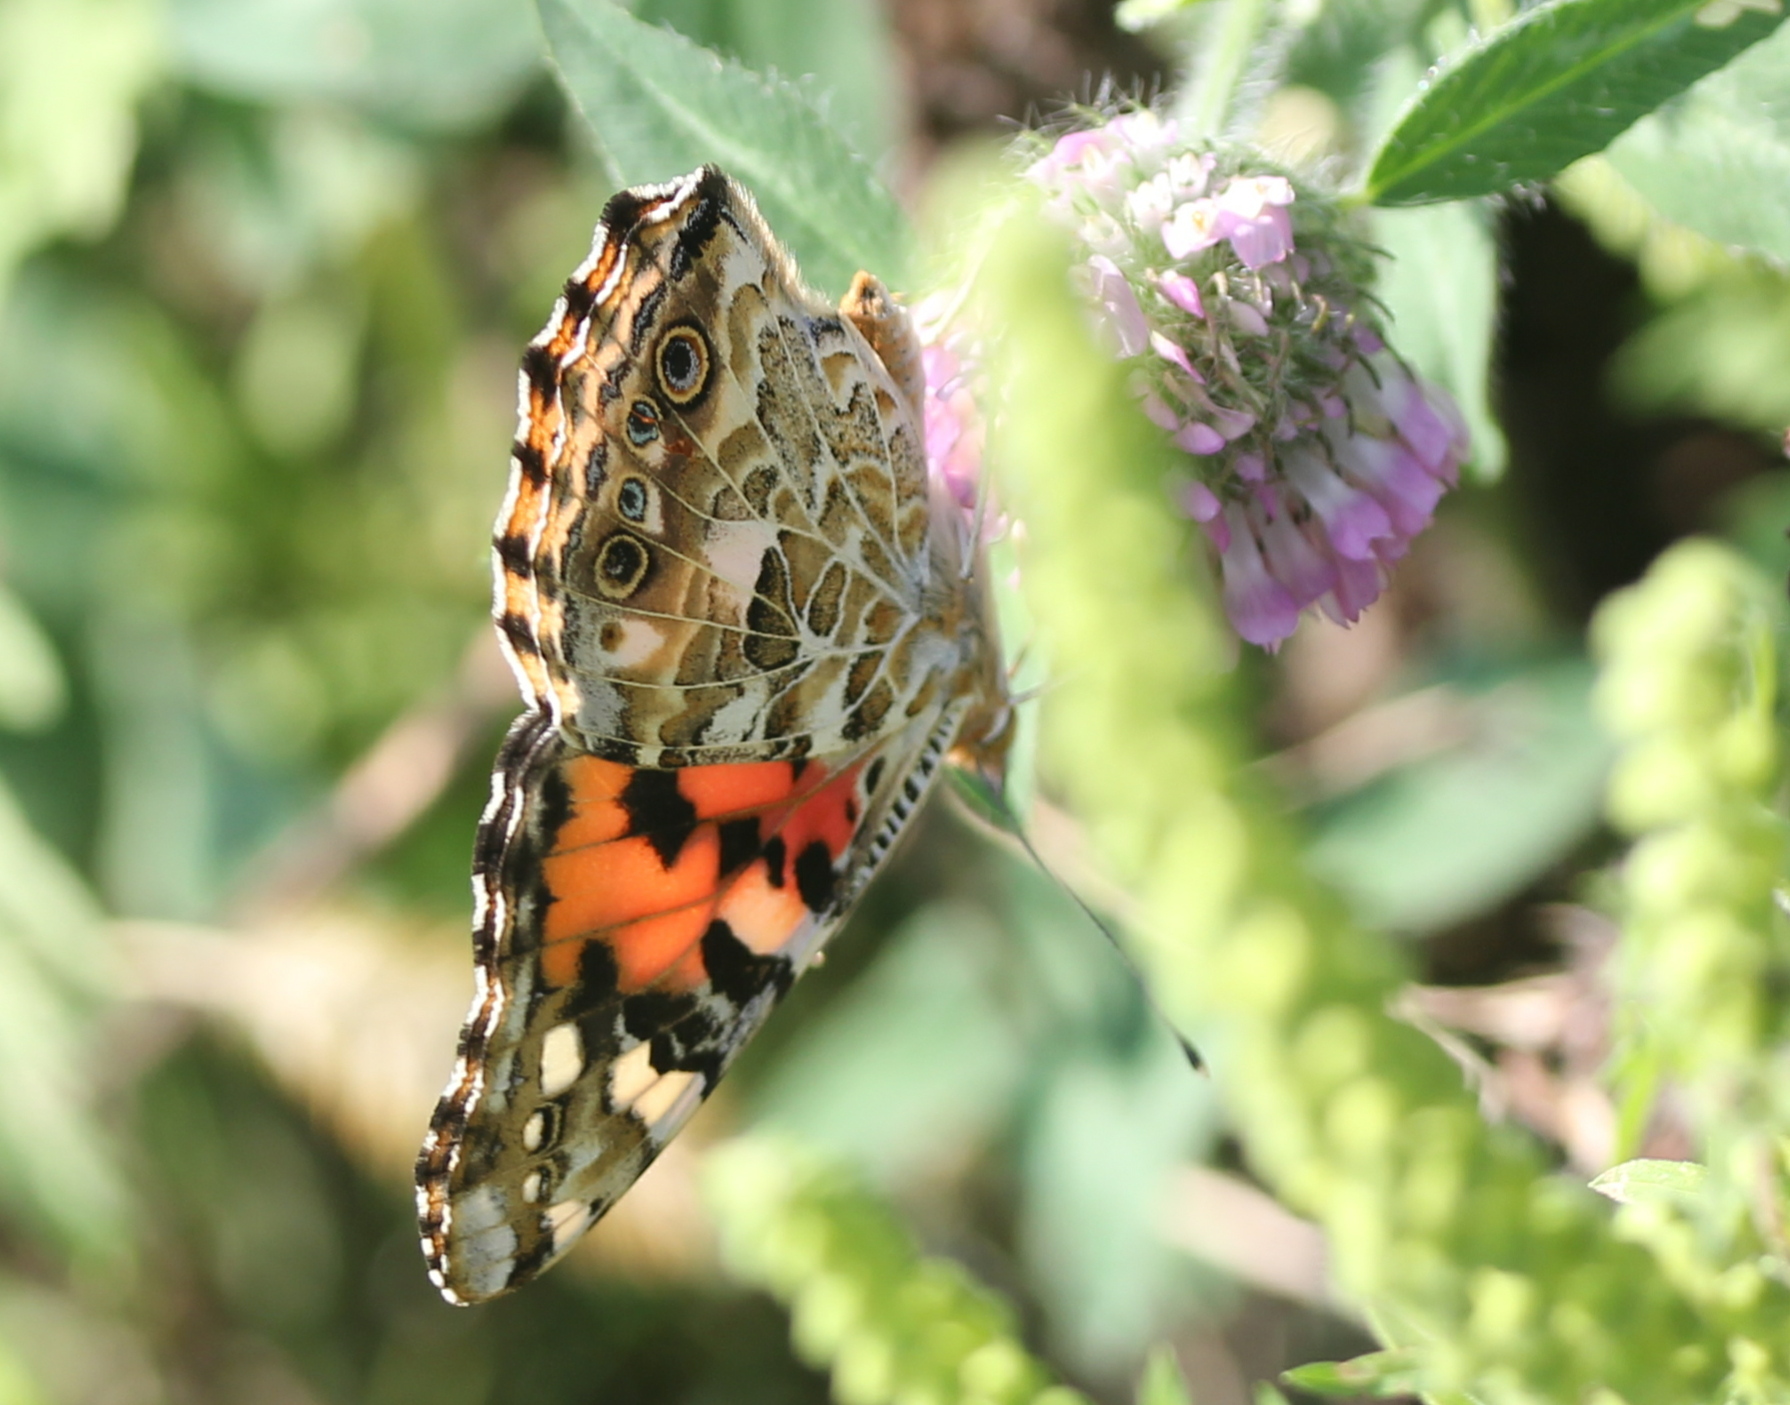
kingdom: Animalia
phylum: Arthropoda
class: Insecta
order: Lepidoptera
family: Nymphalidae
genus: Vanessa
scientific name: Vanessa cardui
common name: Painted lady
